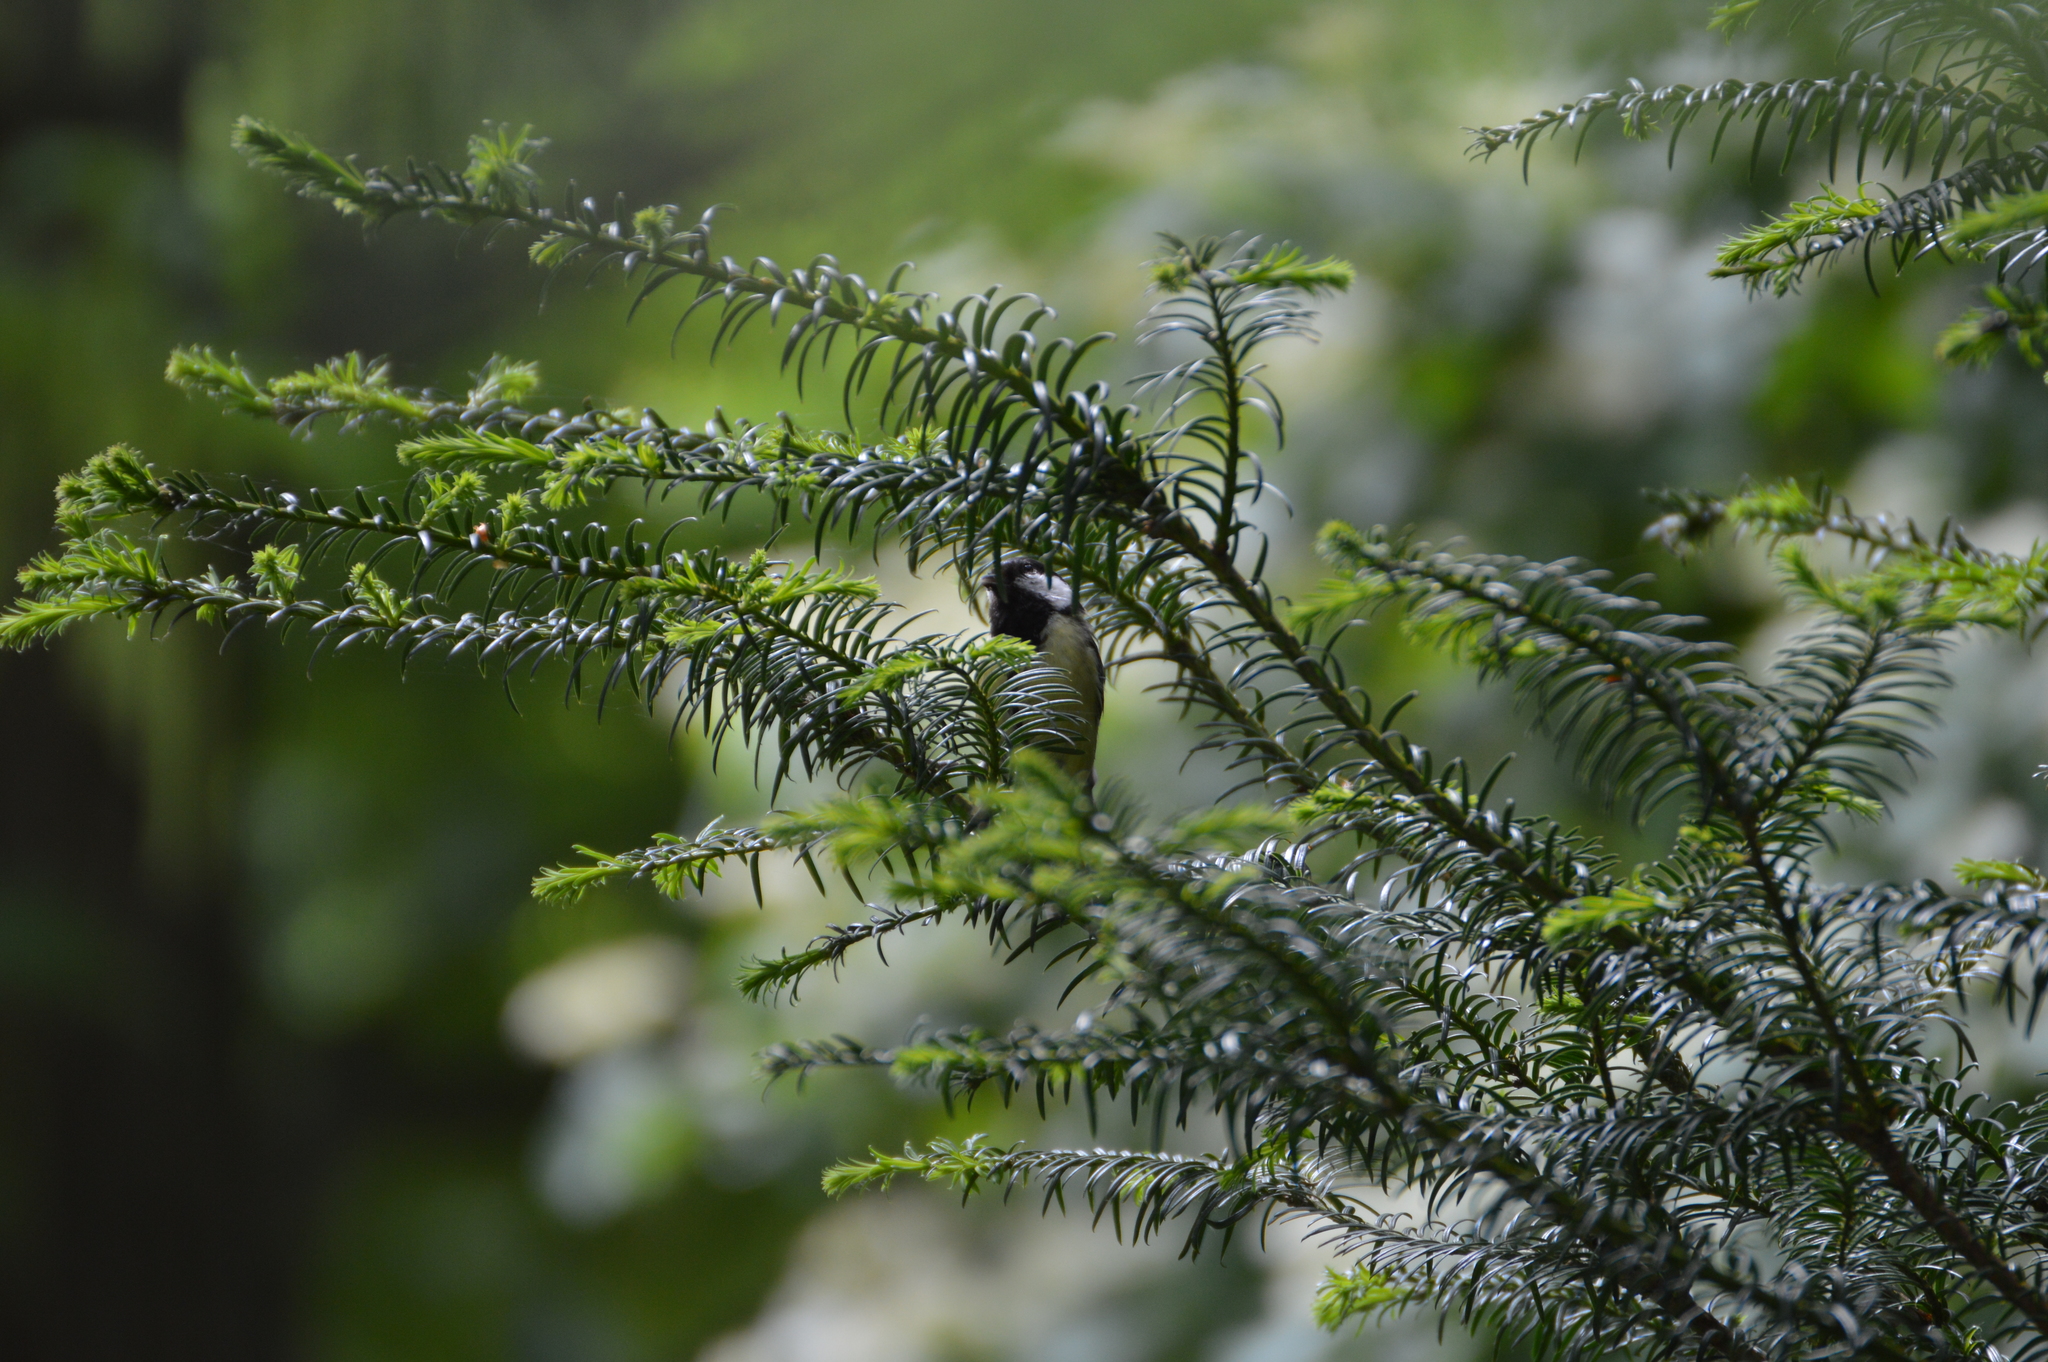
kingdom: Animalia
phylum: Chordata
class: Aves
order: Passeriformes
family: Paridae
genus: Parus
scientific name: Parus major
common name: Great tit
